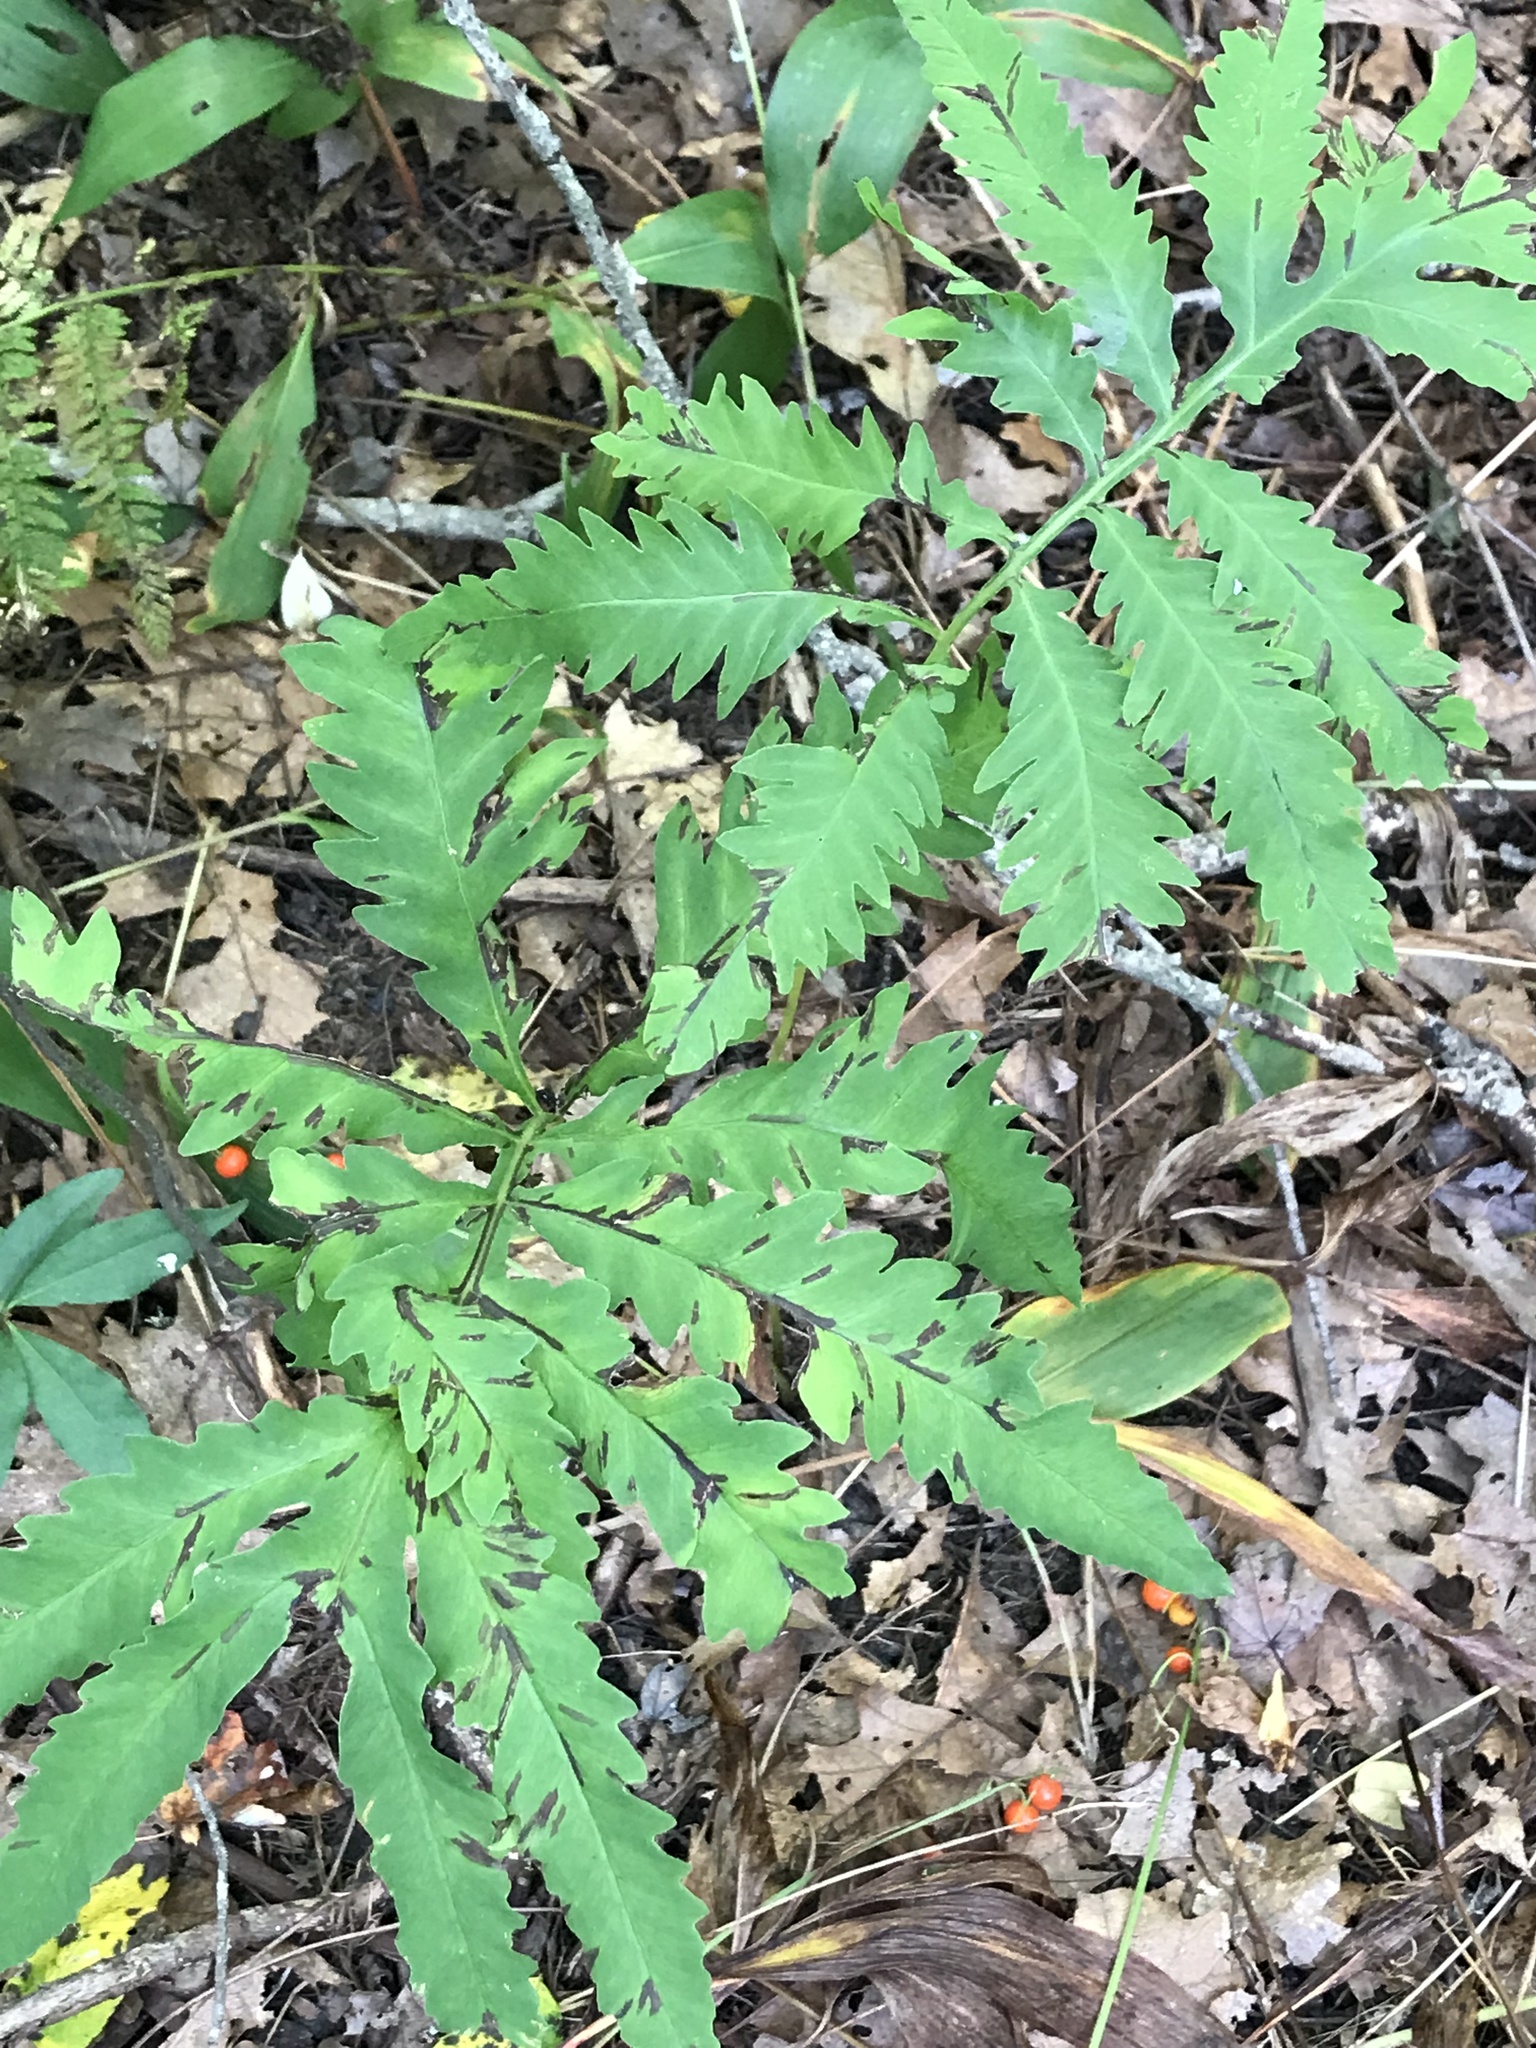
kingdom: Plantae
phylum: Tracheophyta
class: Polypodiopsida
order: Polypodiales
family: Onocleaceae
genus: Onoclea
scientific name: Onoclea sensibilis
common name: Sensitive fern
